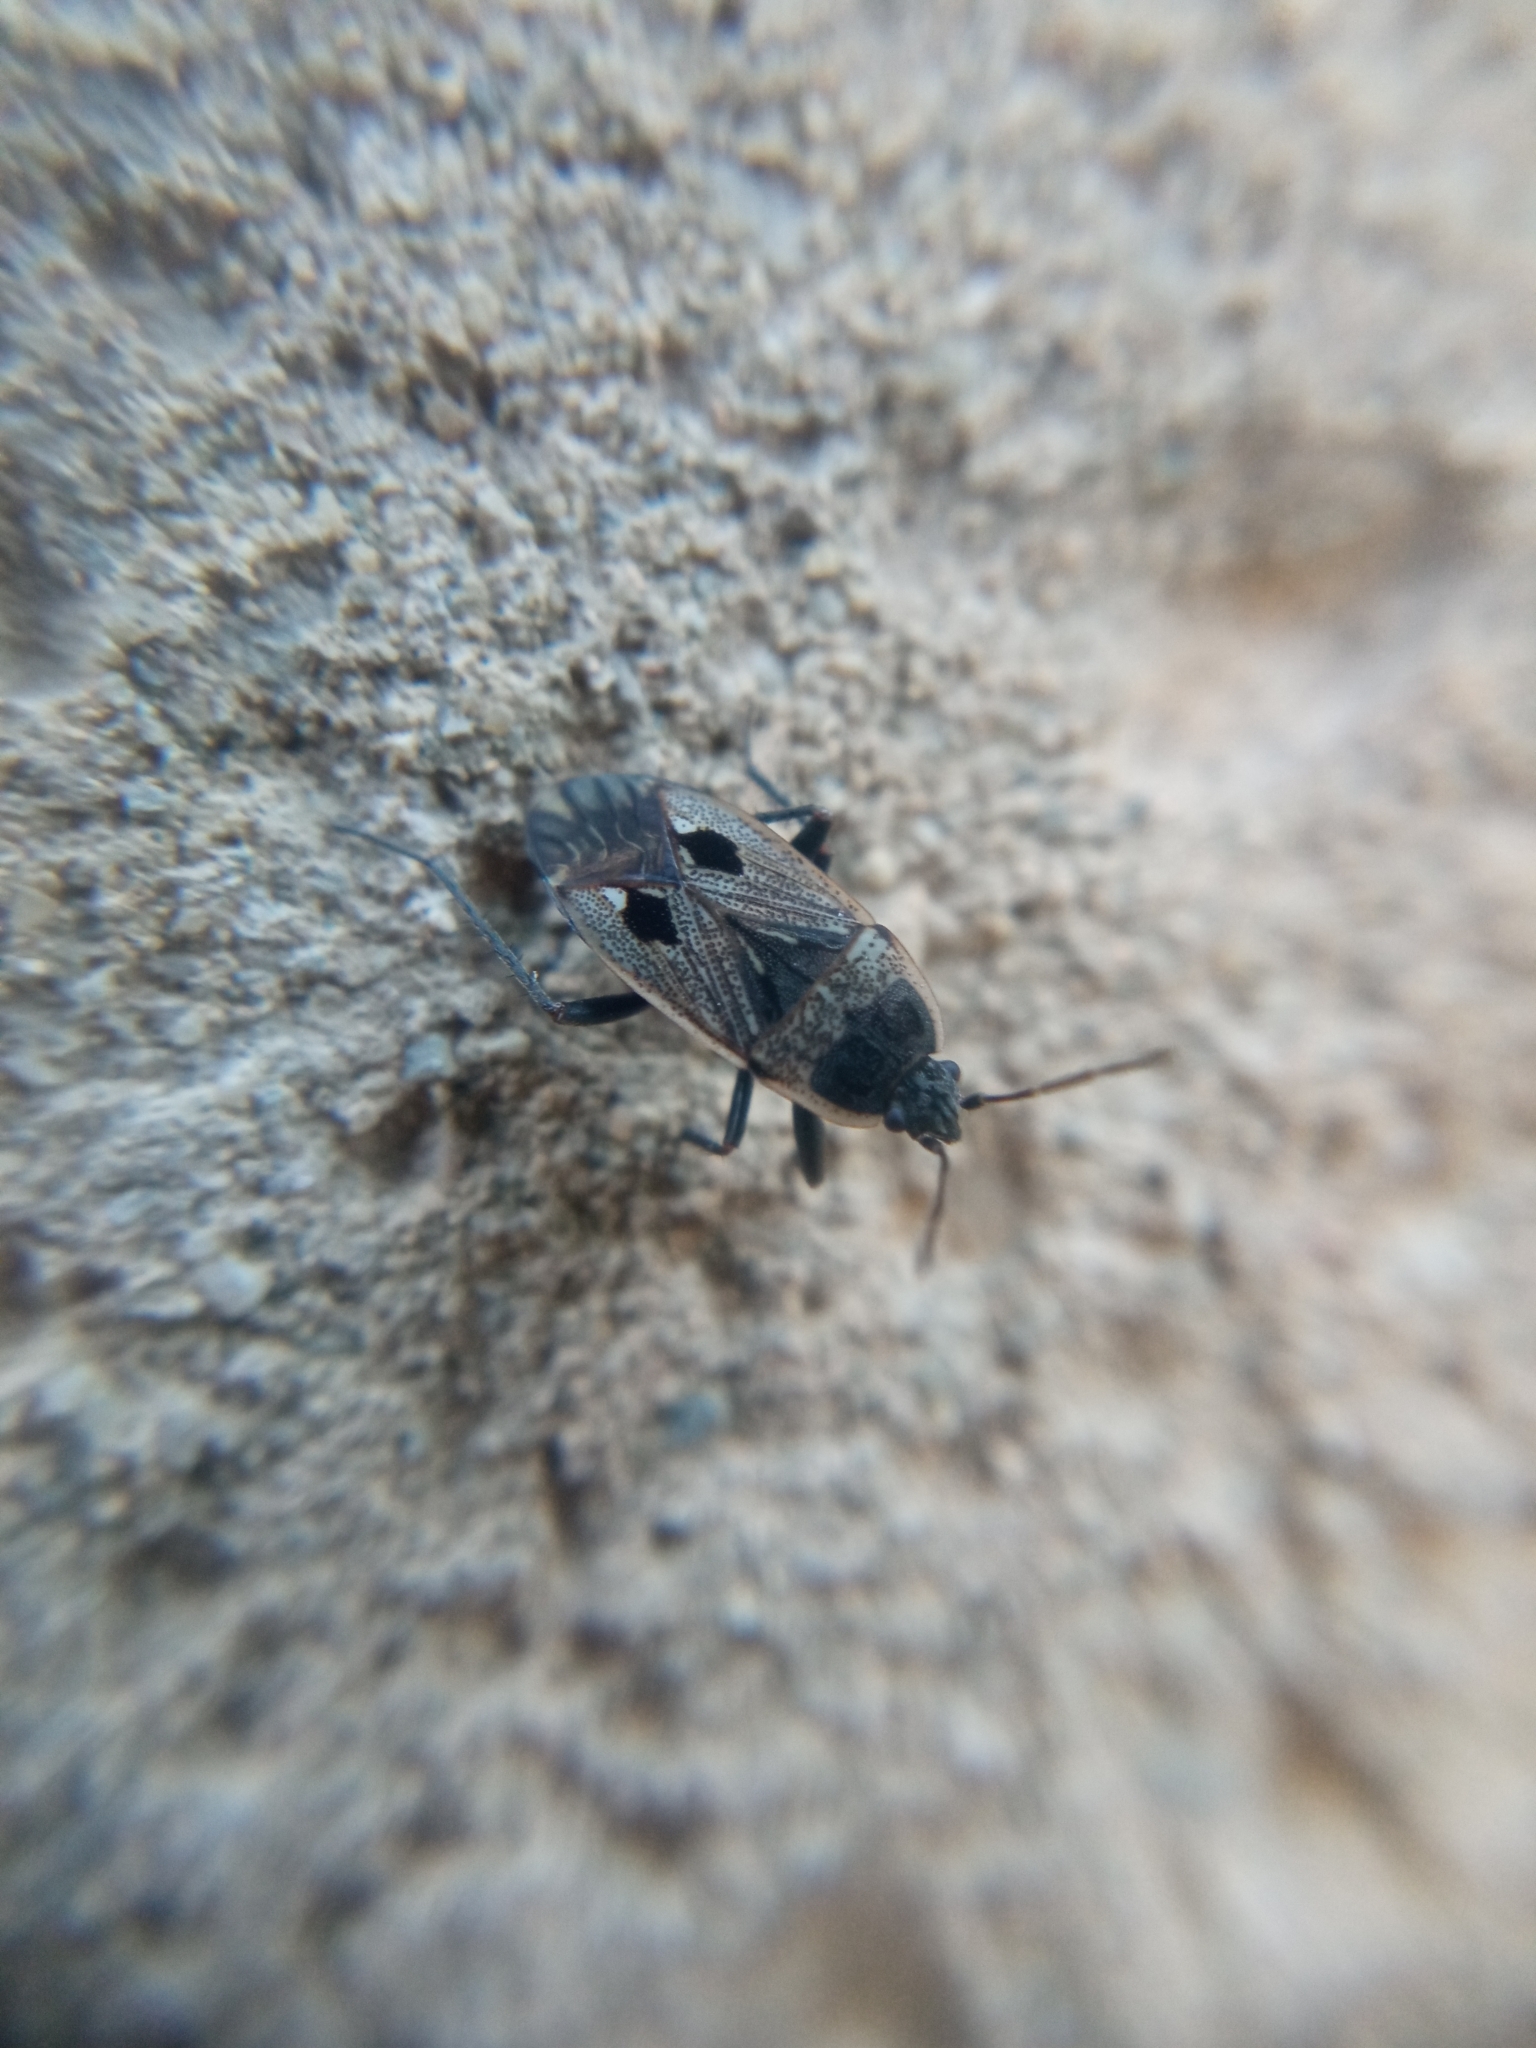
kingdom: Animalia
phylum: Arthropoda
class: Insecta
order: Hemiptera
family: Rhyparochromidae
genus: Graptopeltus
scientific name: Graptopeltus lynceus
